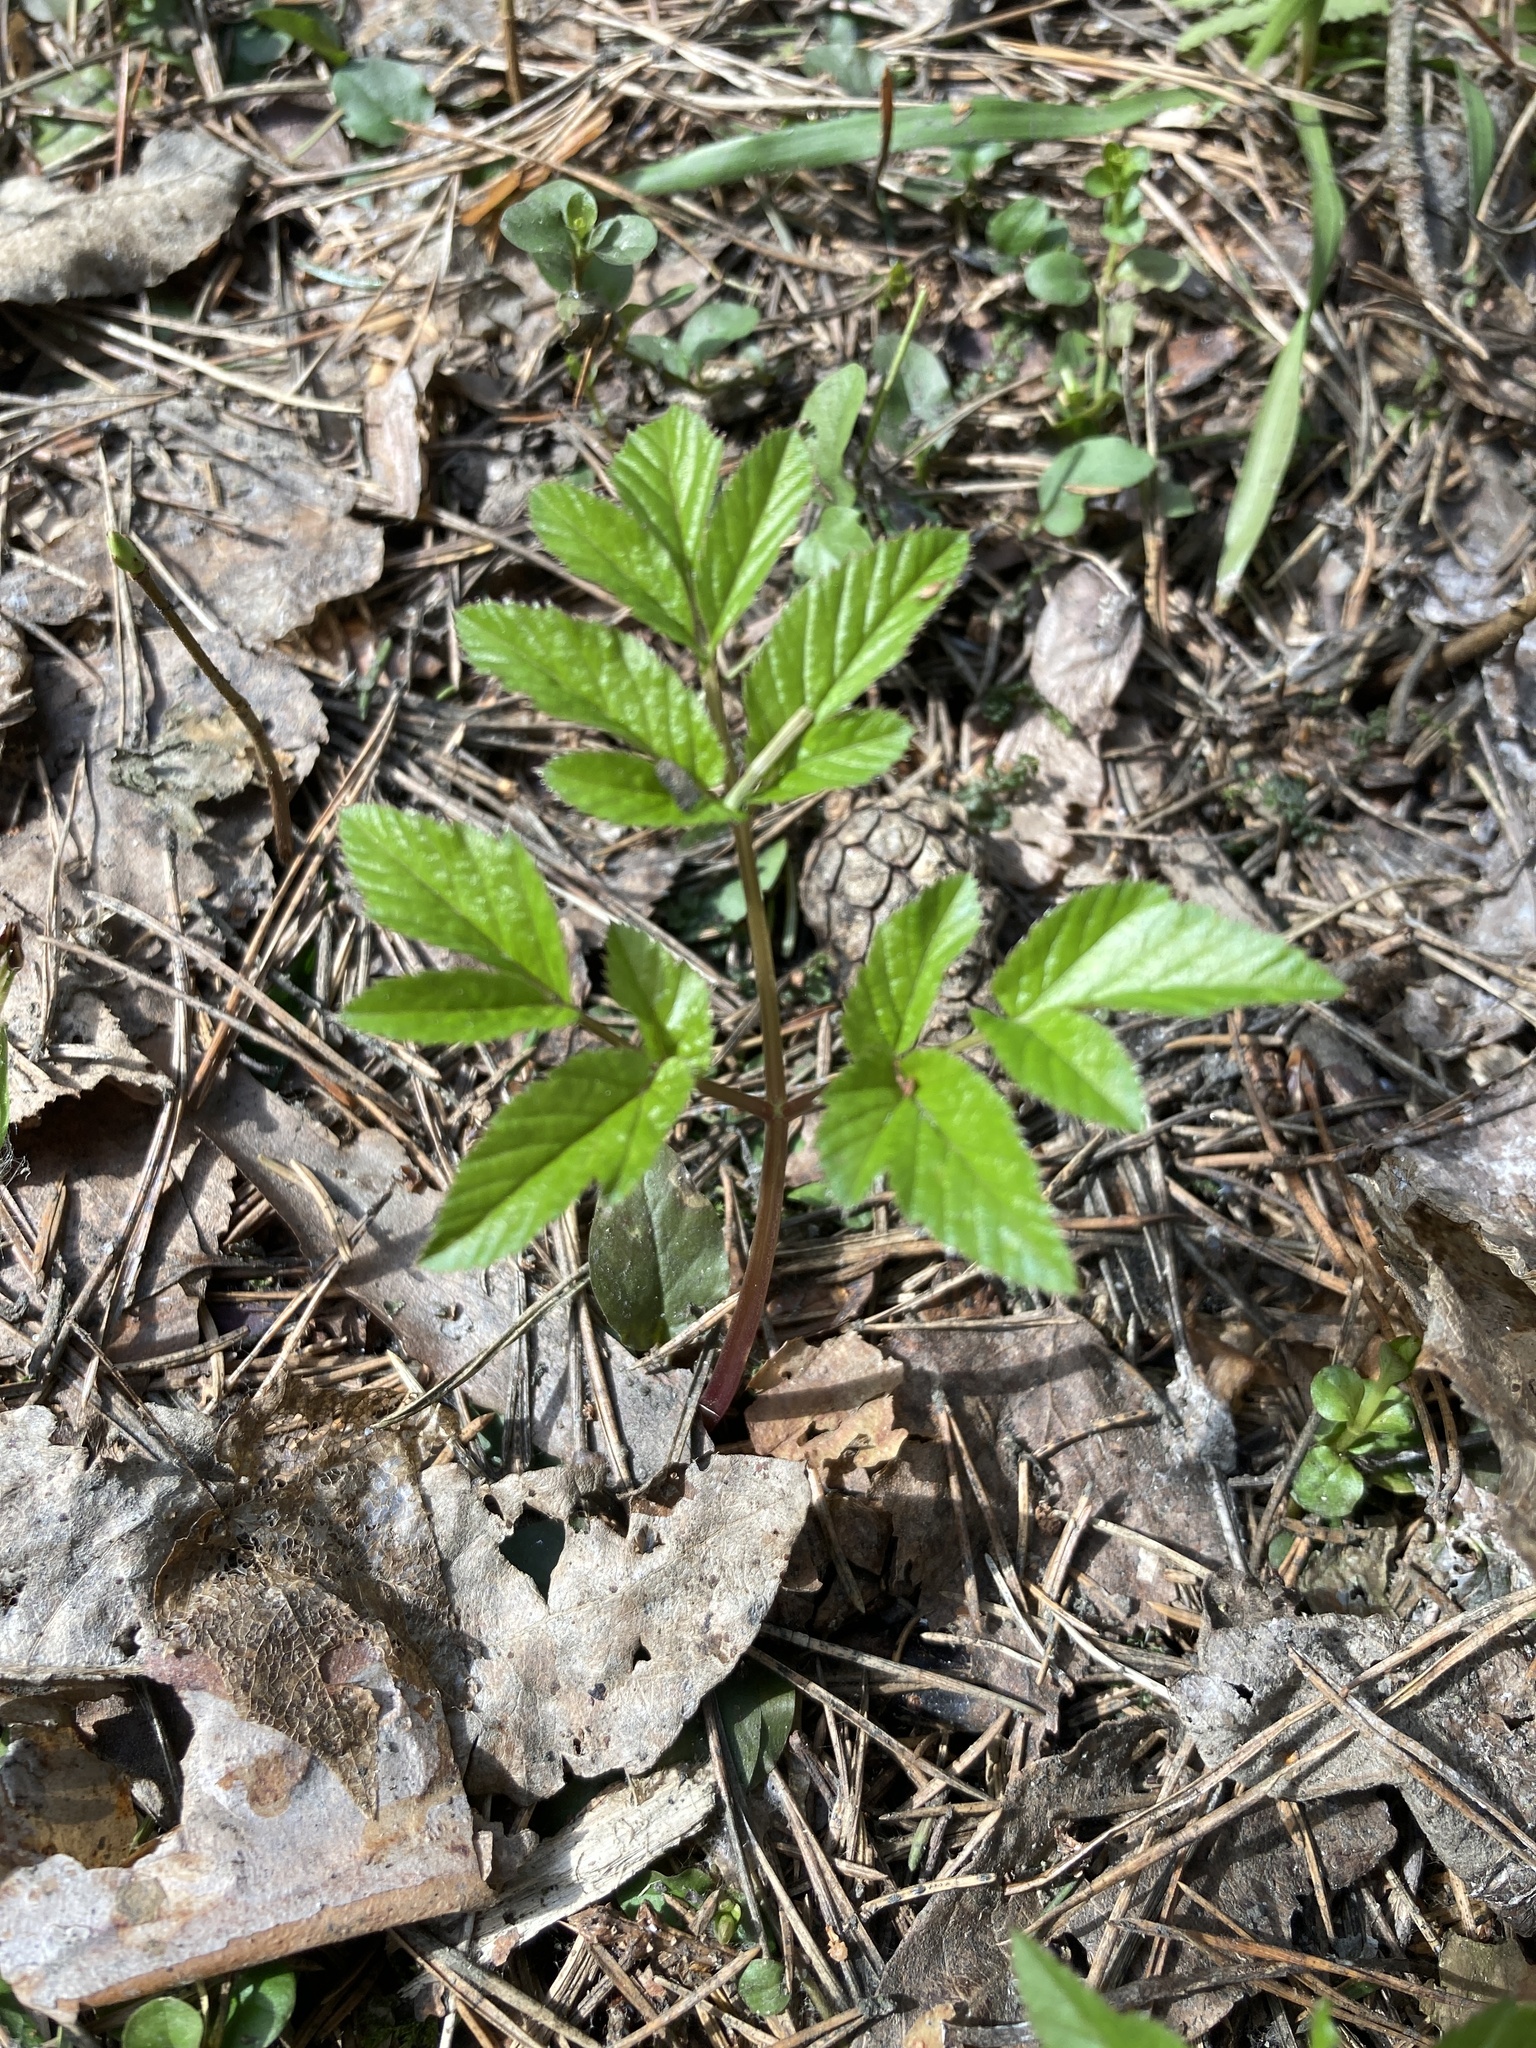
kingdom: Plantae
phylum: Tracheophyta
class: Magnoliopsida
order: Apiales
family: Apiaceae
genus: Aegopodium
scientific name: Aegopodium podagraria
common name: Ground-elder
